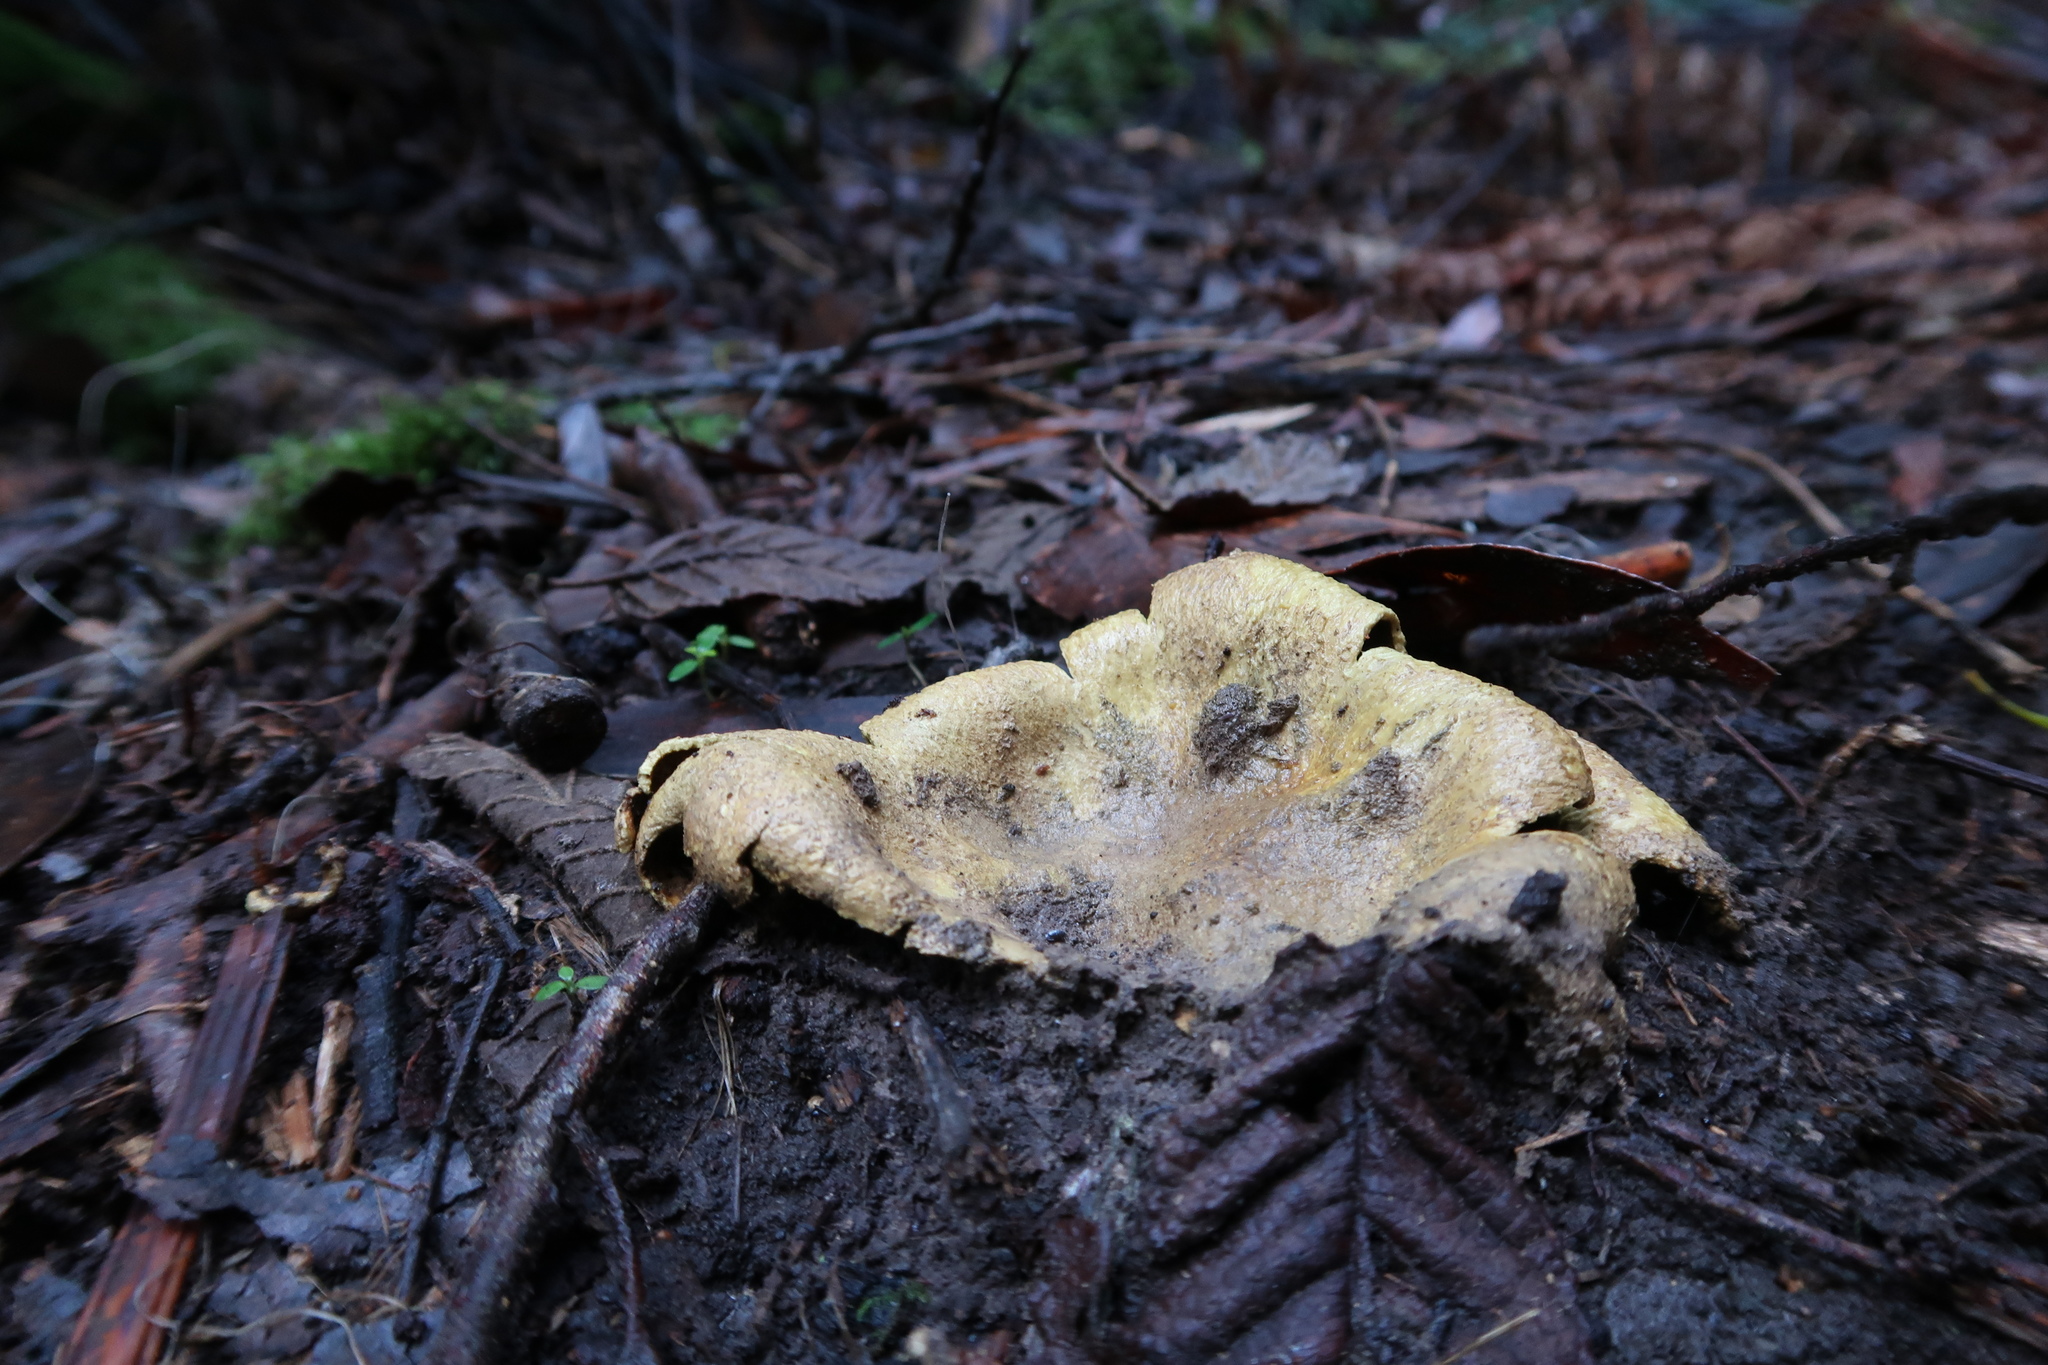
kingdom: Fungi
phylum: Basidiomycota
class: Agaricomycetes
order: Boletales
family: Sclerodermataceae
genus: Scleroderma
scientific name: Scleroderma cepa
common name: Onion earthball
